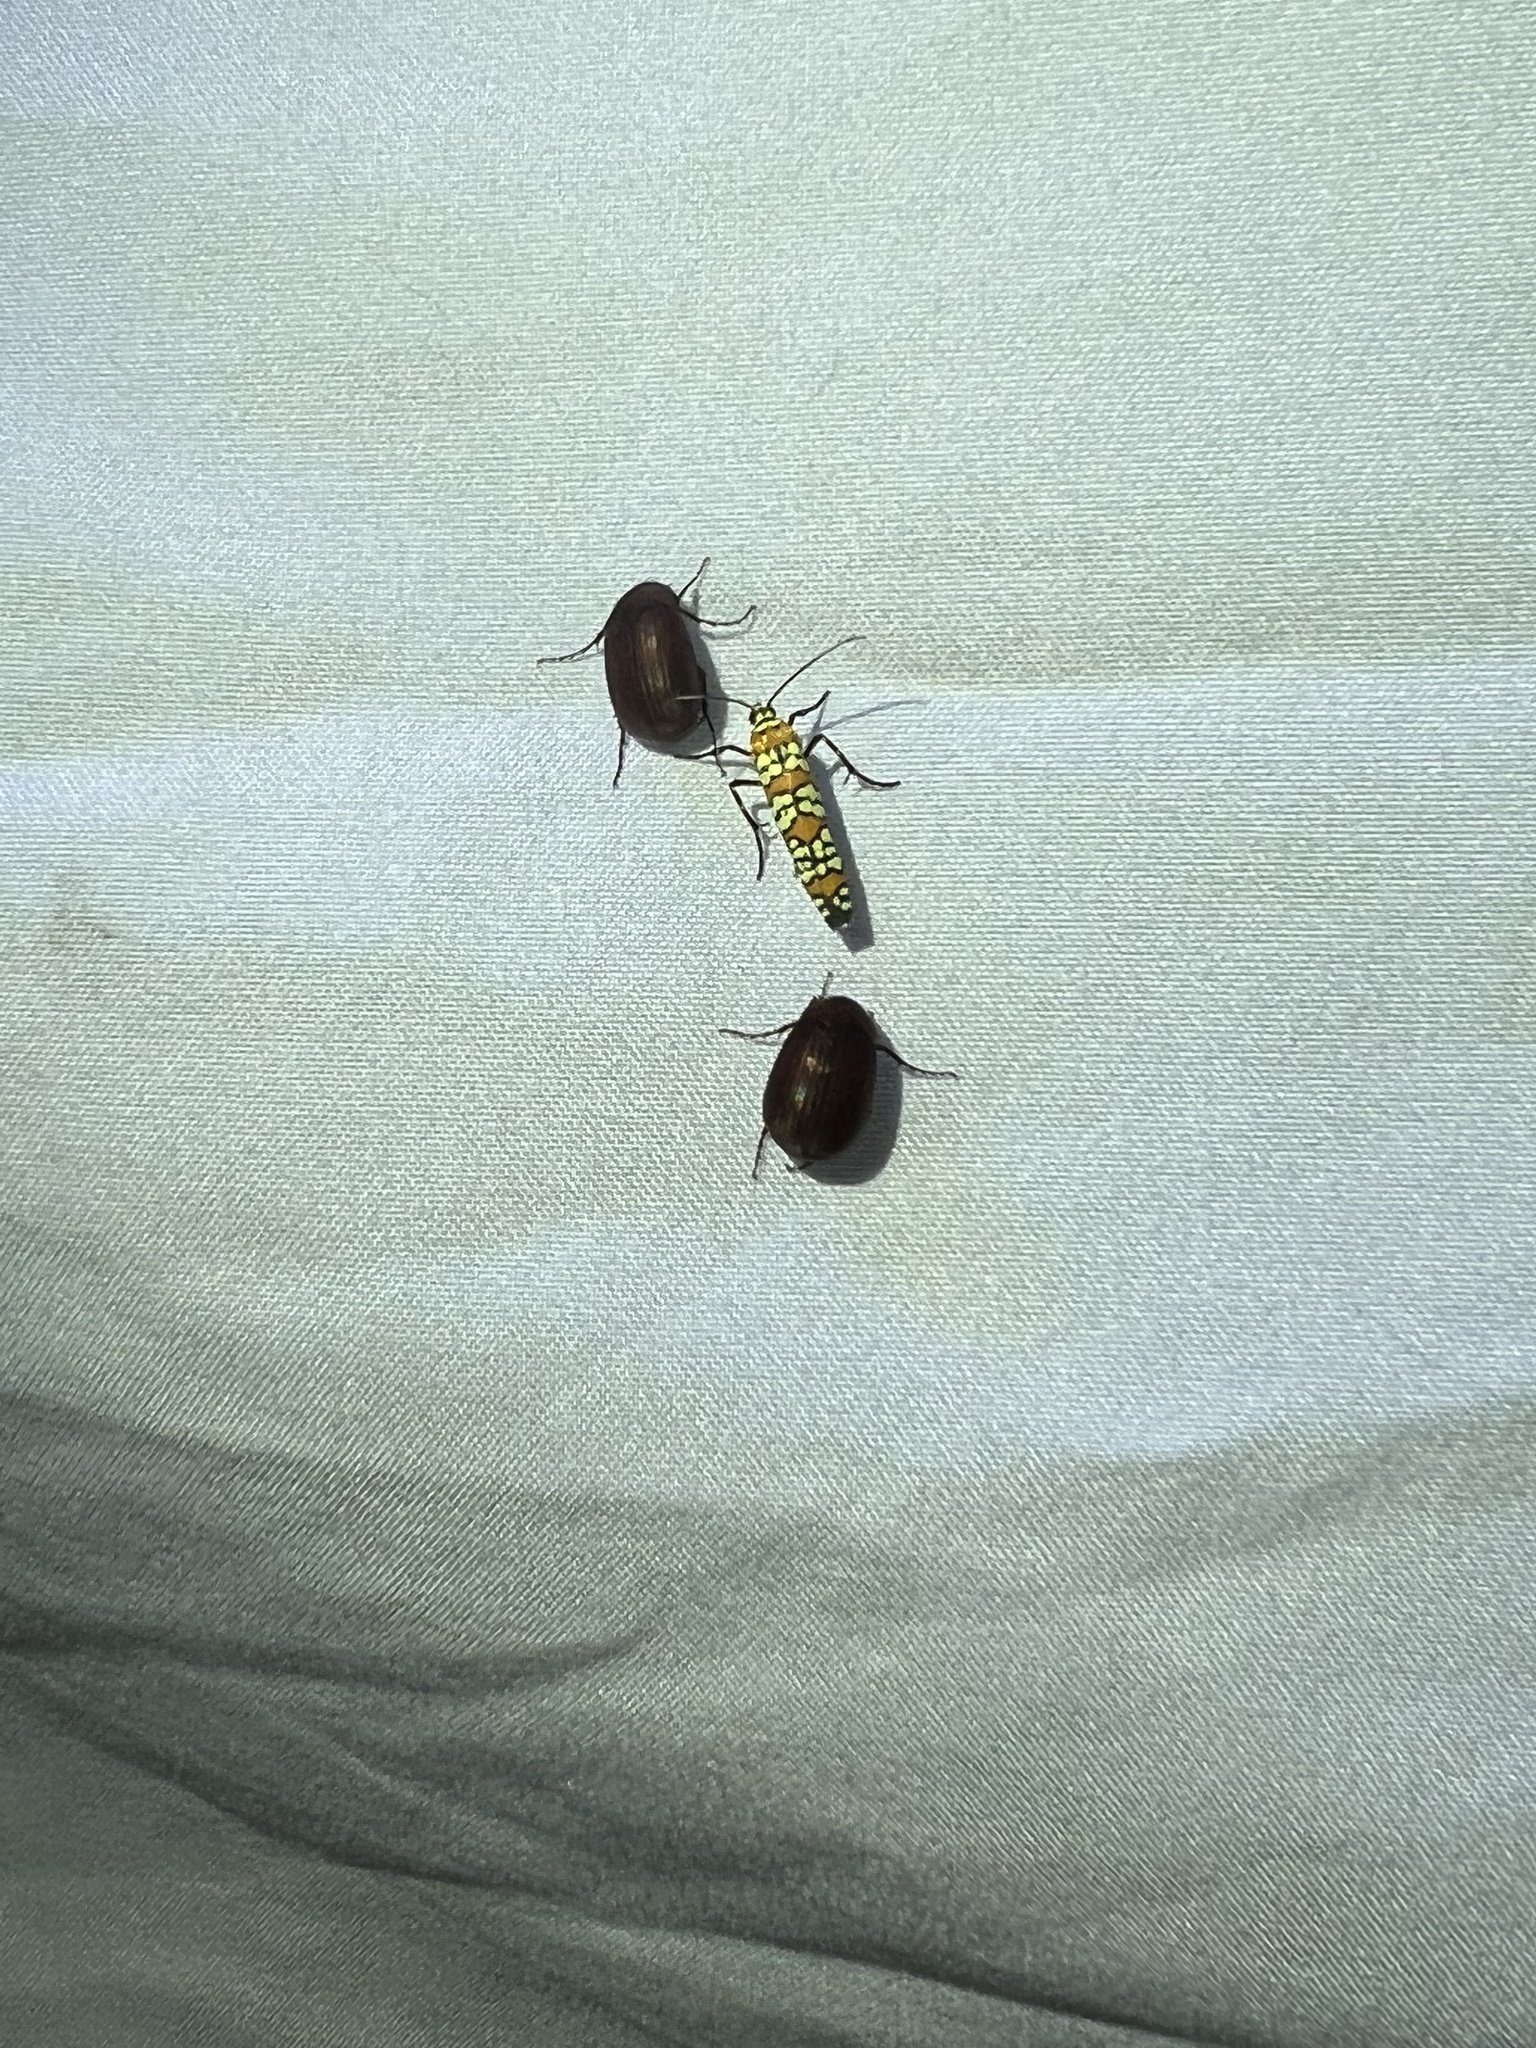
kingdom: Animalia
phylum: Arthropoda
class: Insecta
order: Lepidoptera
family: Attevidae
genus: Atteva
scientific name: Atteva punctella
